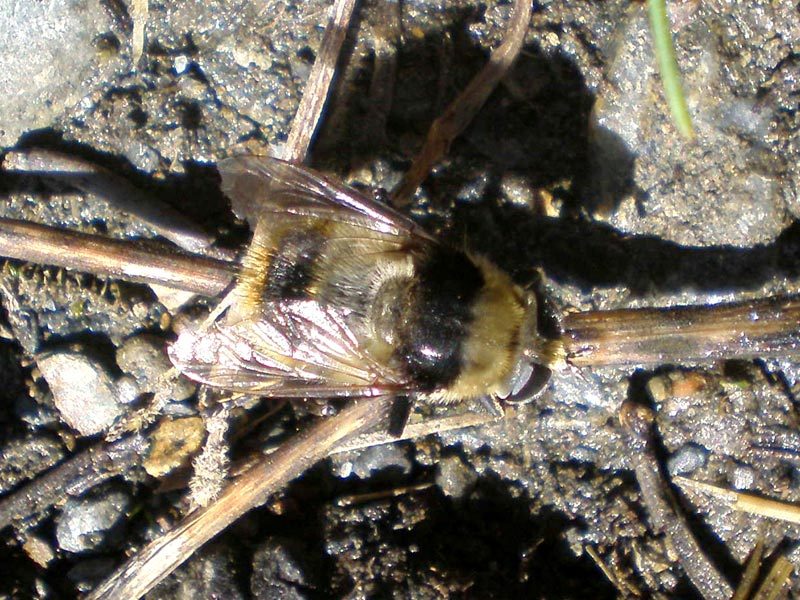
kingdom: Animalia
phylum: Arthropoda
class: Insecta
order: Diptera
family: Syrphidae
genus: Merodon
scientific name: Merodon equestris
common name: Greater bulb-fly
